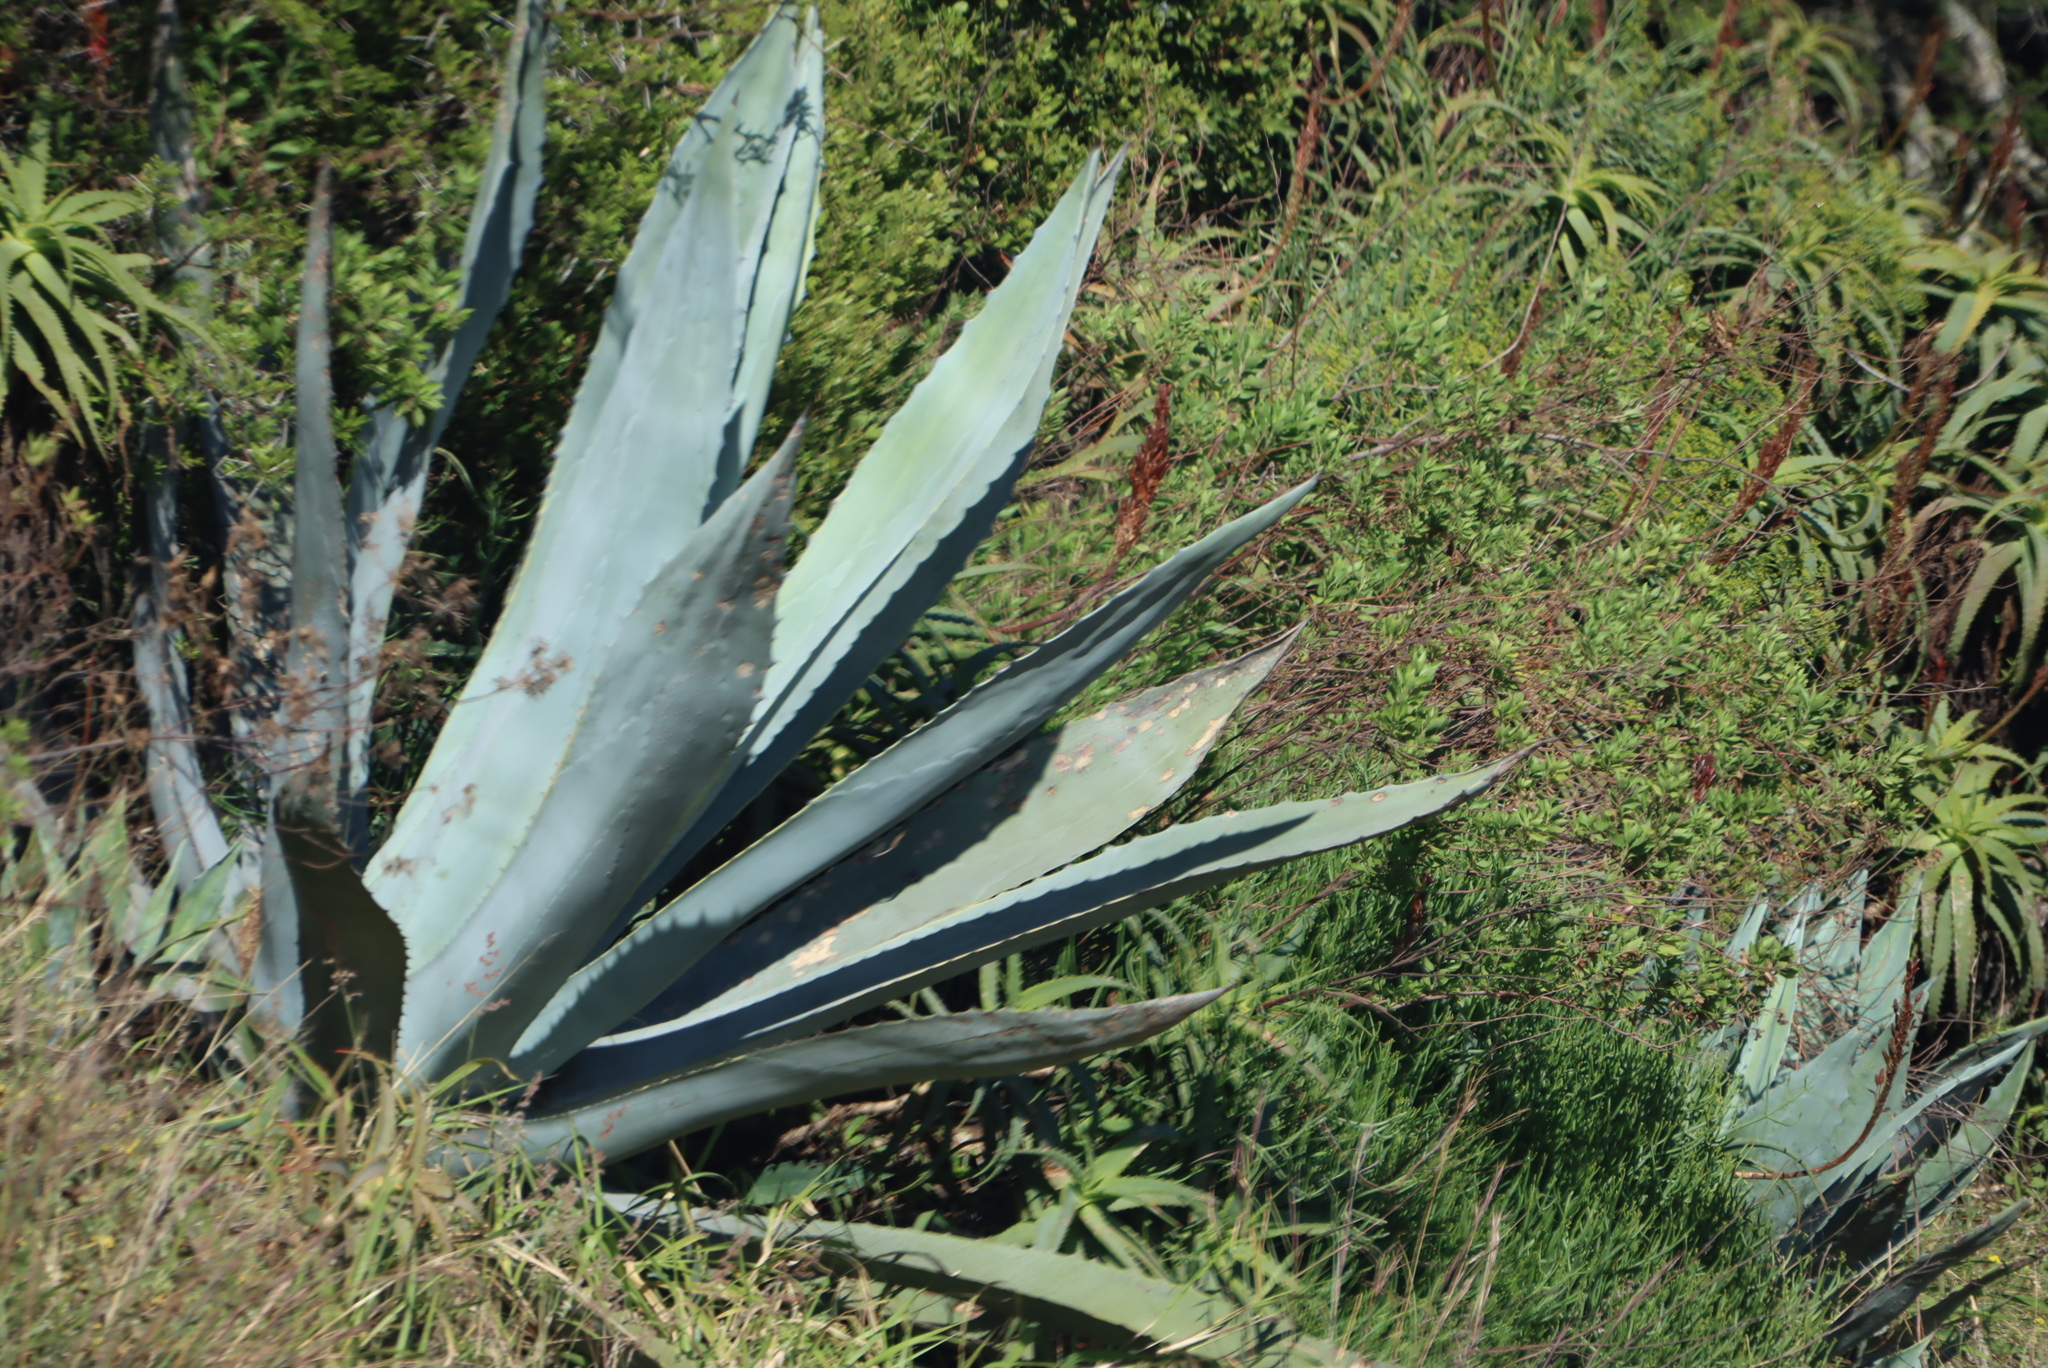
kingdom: Plantae
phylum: Tracheophyta
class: Liliopsida
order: Asparagales
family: Asparagaceae
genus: Agave
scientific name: Agave americana
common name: Centuryplant
